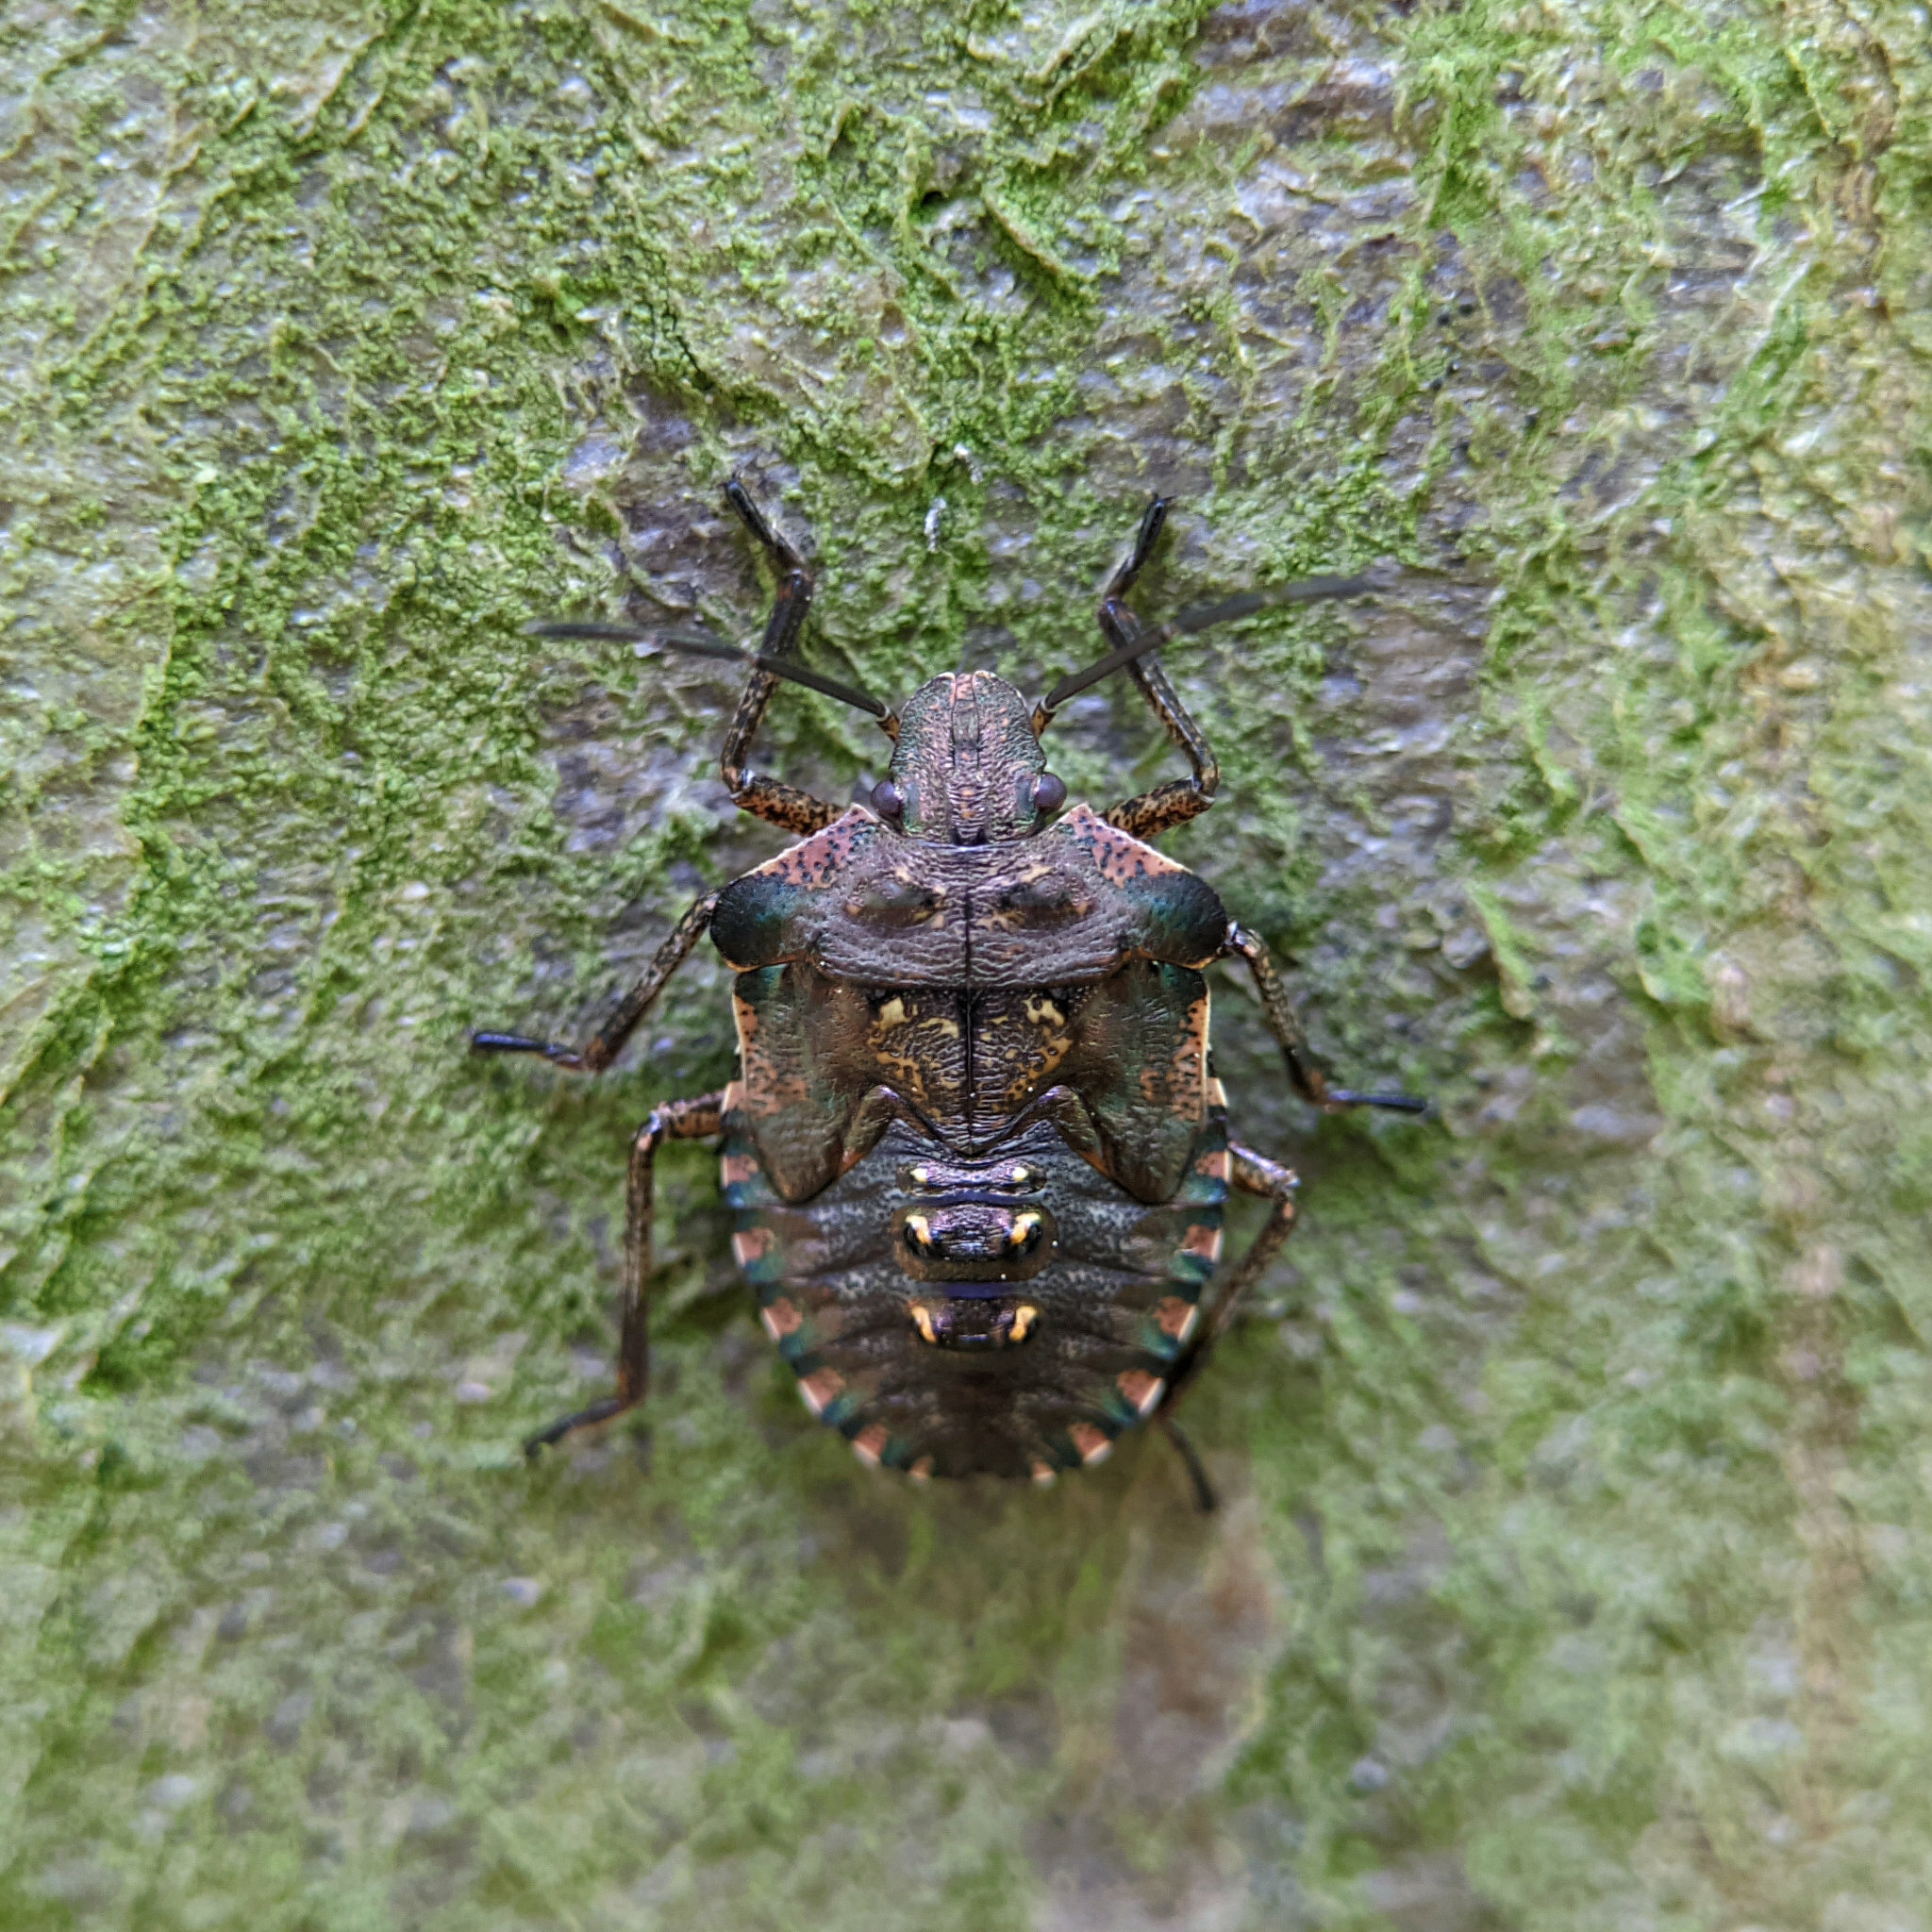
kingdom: Animalia
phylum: Arthropoda
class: Insecta
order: Hemiptera
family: Pentatomidae
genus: Pentatoma
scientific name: Pentatoma rufipes
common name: Forest bug
